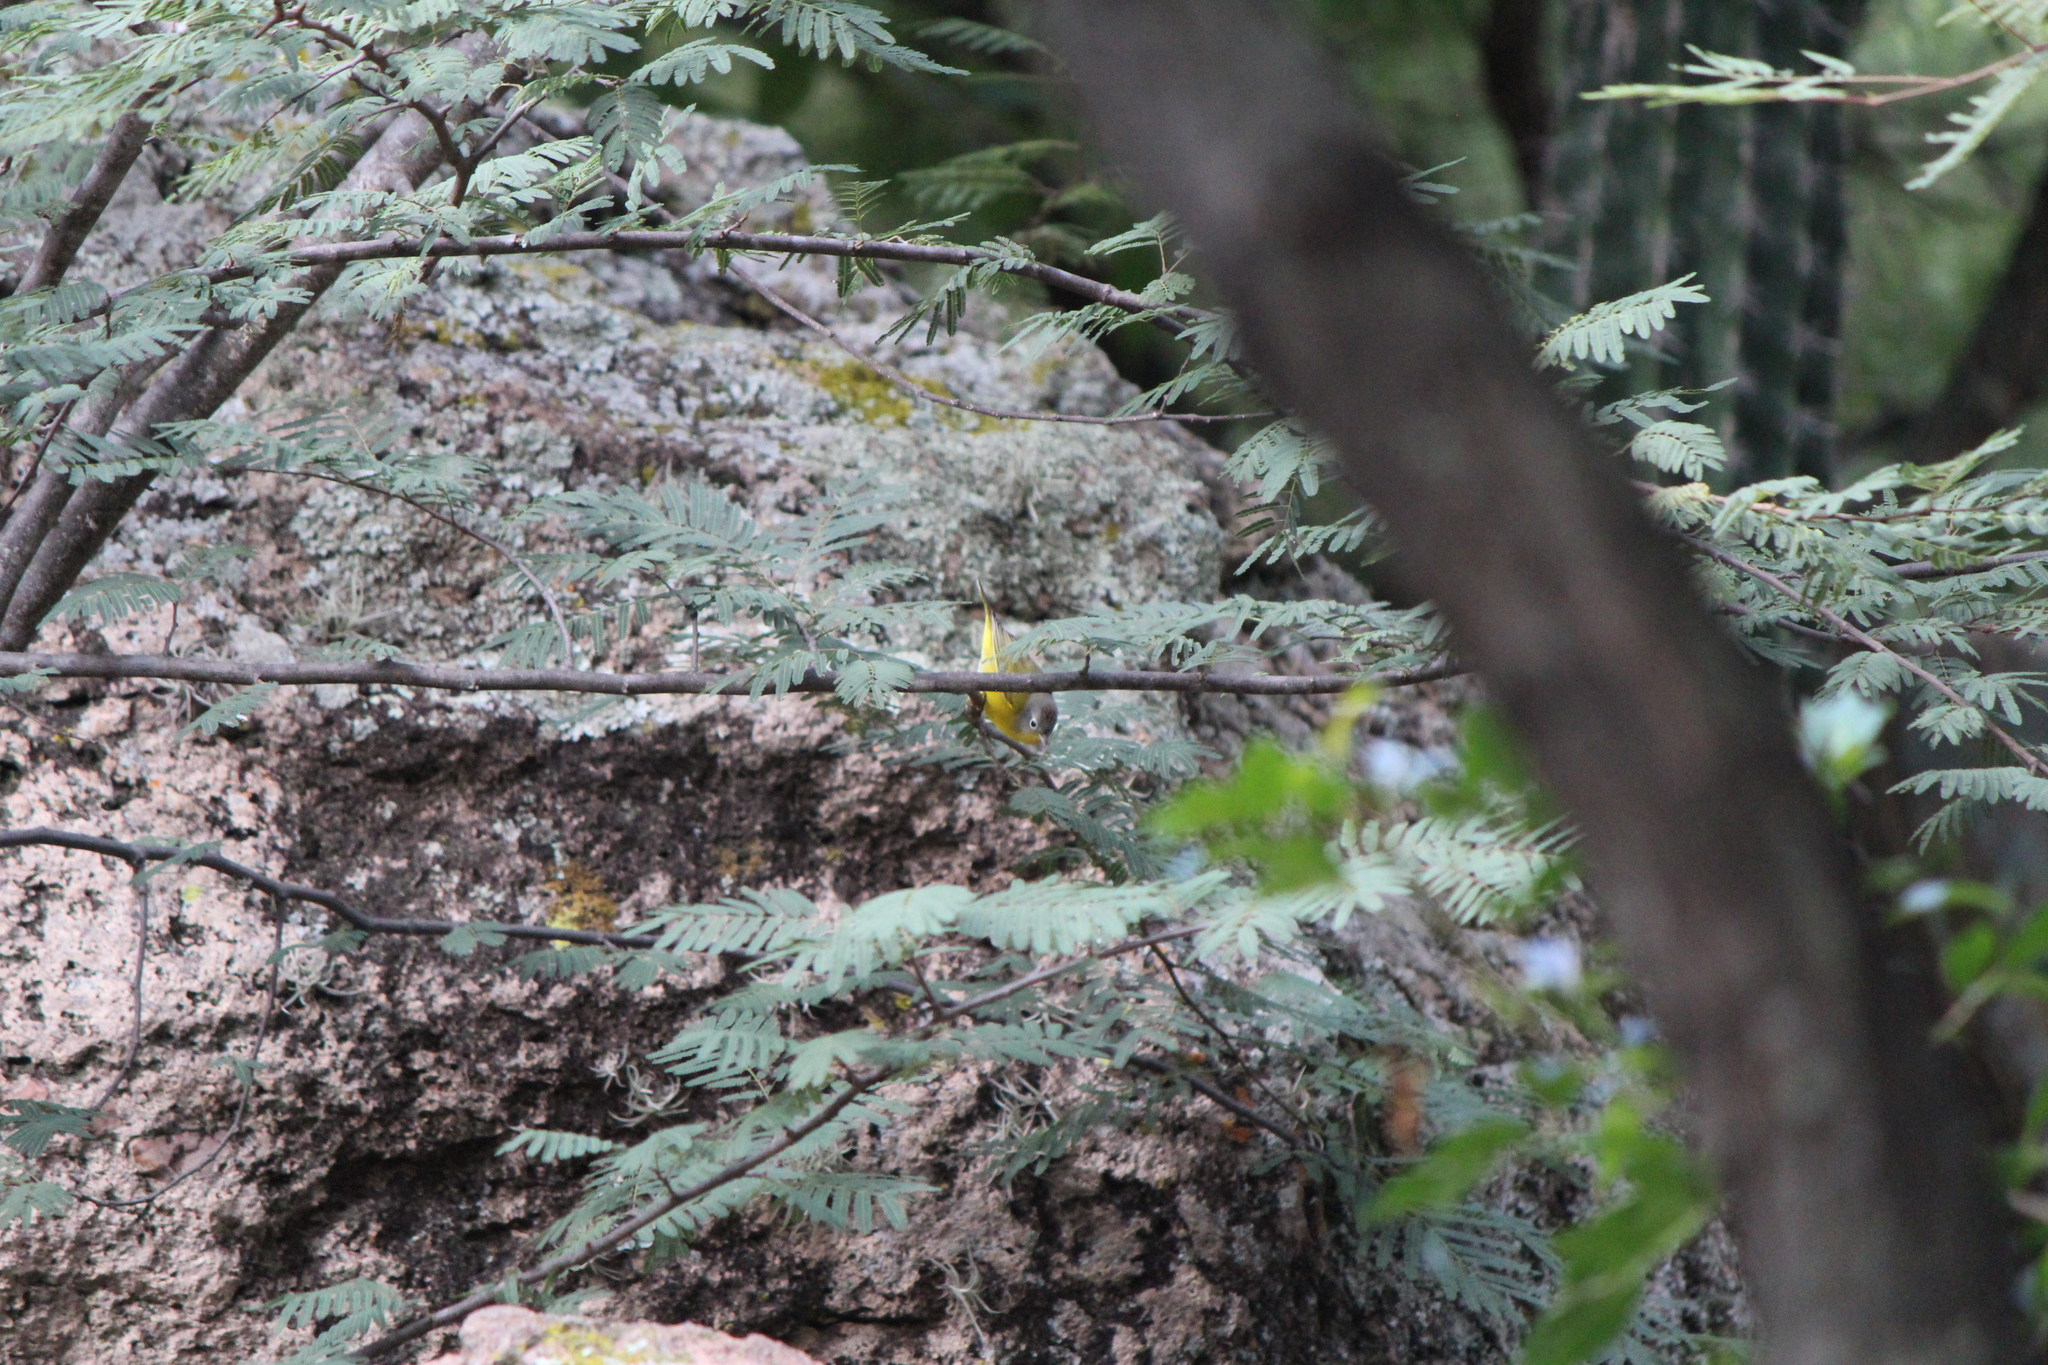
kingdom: Animalia
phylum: Chordata
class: Aves
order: Passeriformes
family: Parulidae
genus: Leiothlypis
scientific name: Leiothlypis ruficapilla
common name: Nashville warbler
